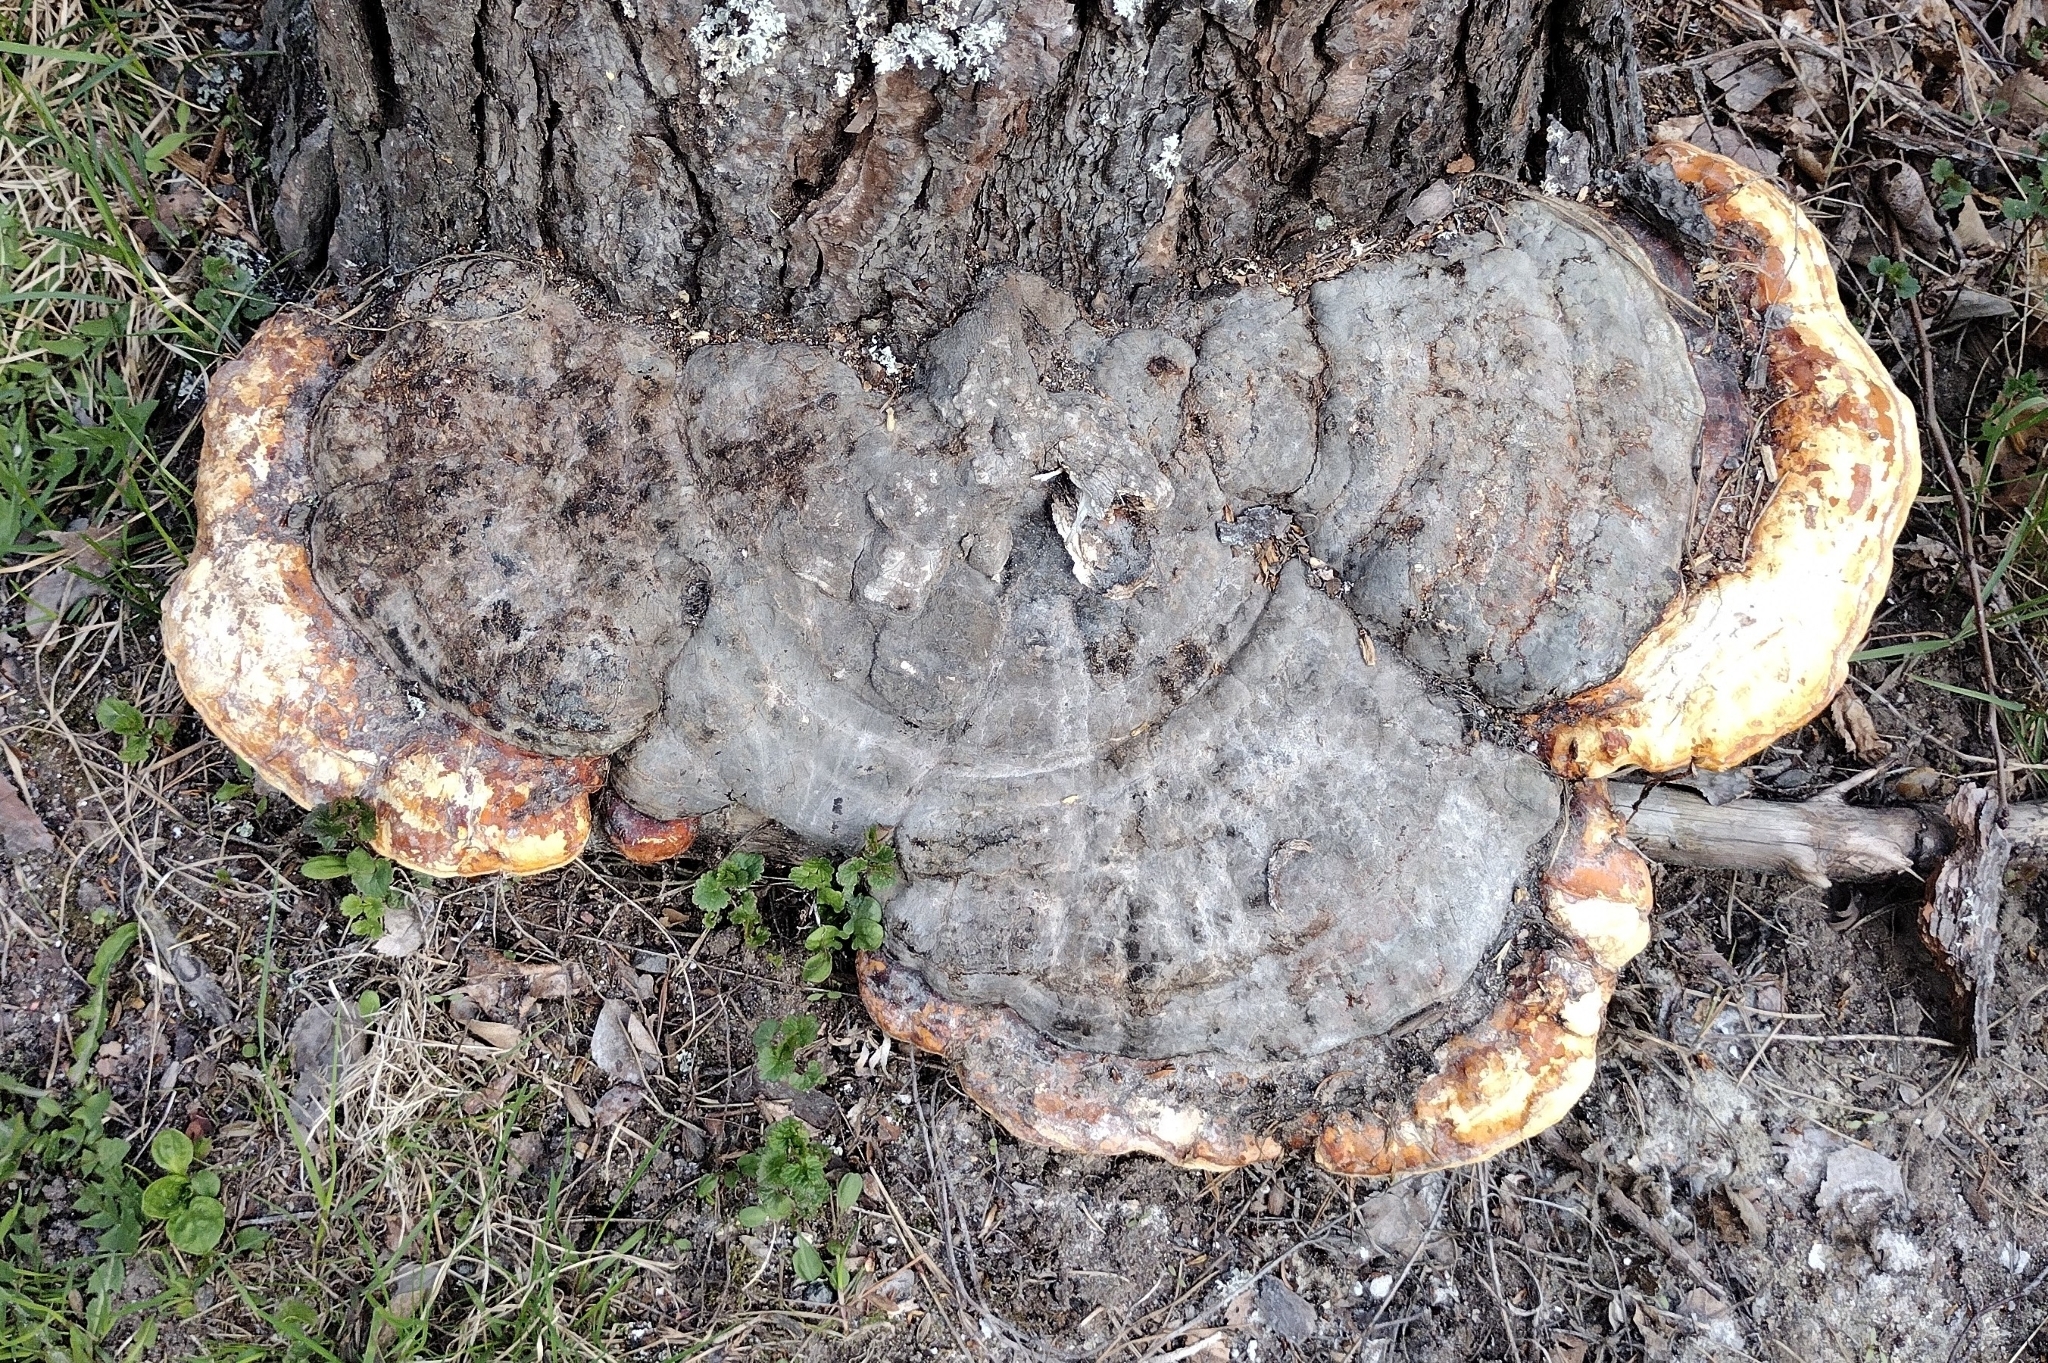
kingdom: Fungi
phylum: Basidiomycota
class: Agaricomycetes
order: Polyporales
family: Fomitopsidaceae
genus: Fomitopsis
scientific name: Fomitopsis pinicola
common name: Red-belted bracket
